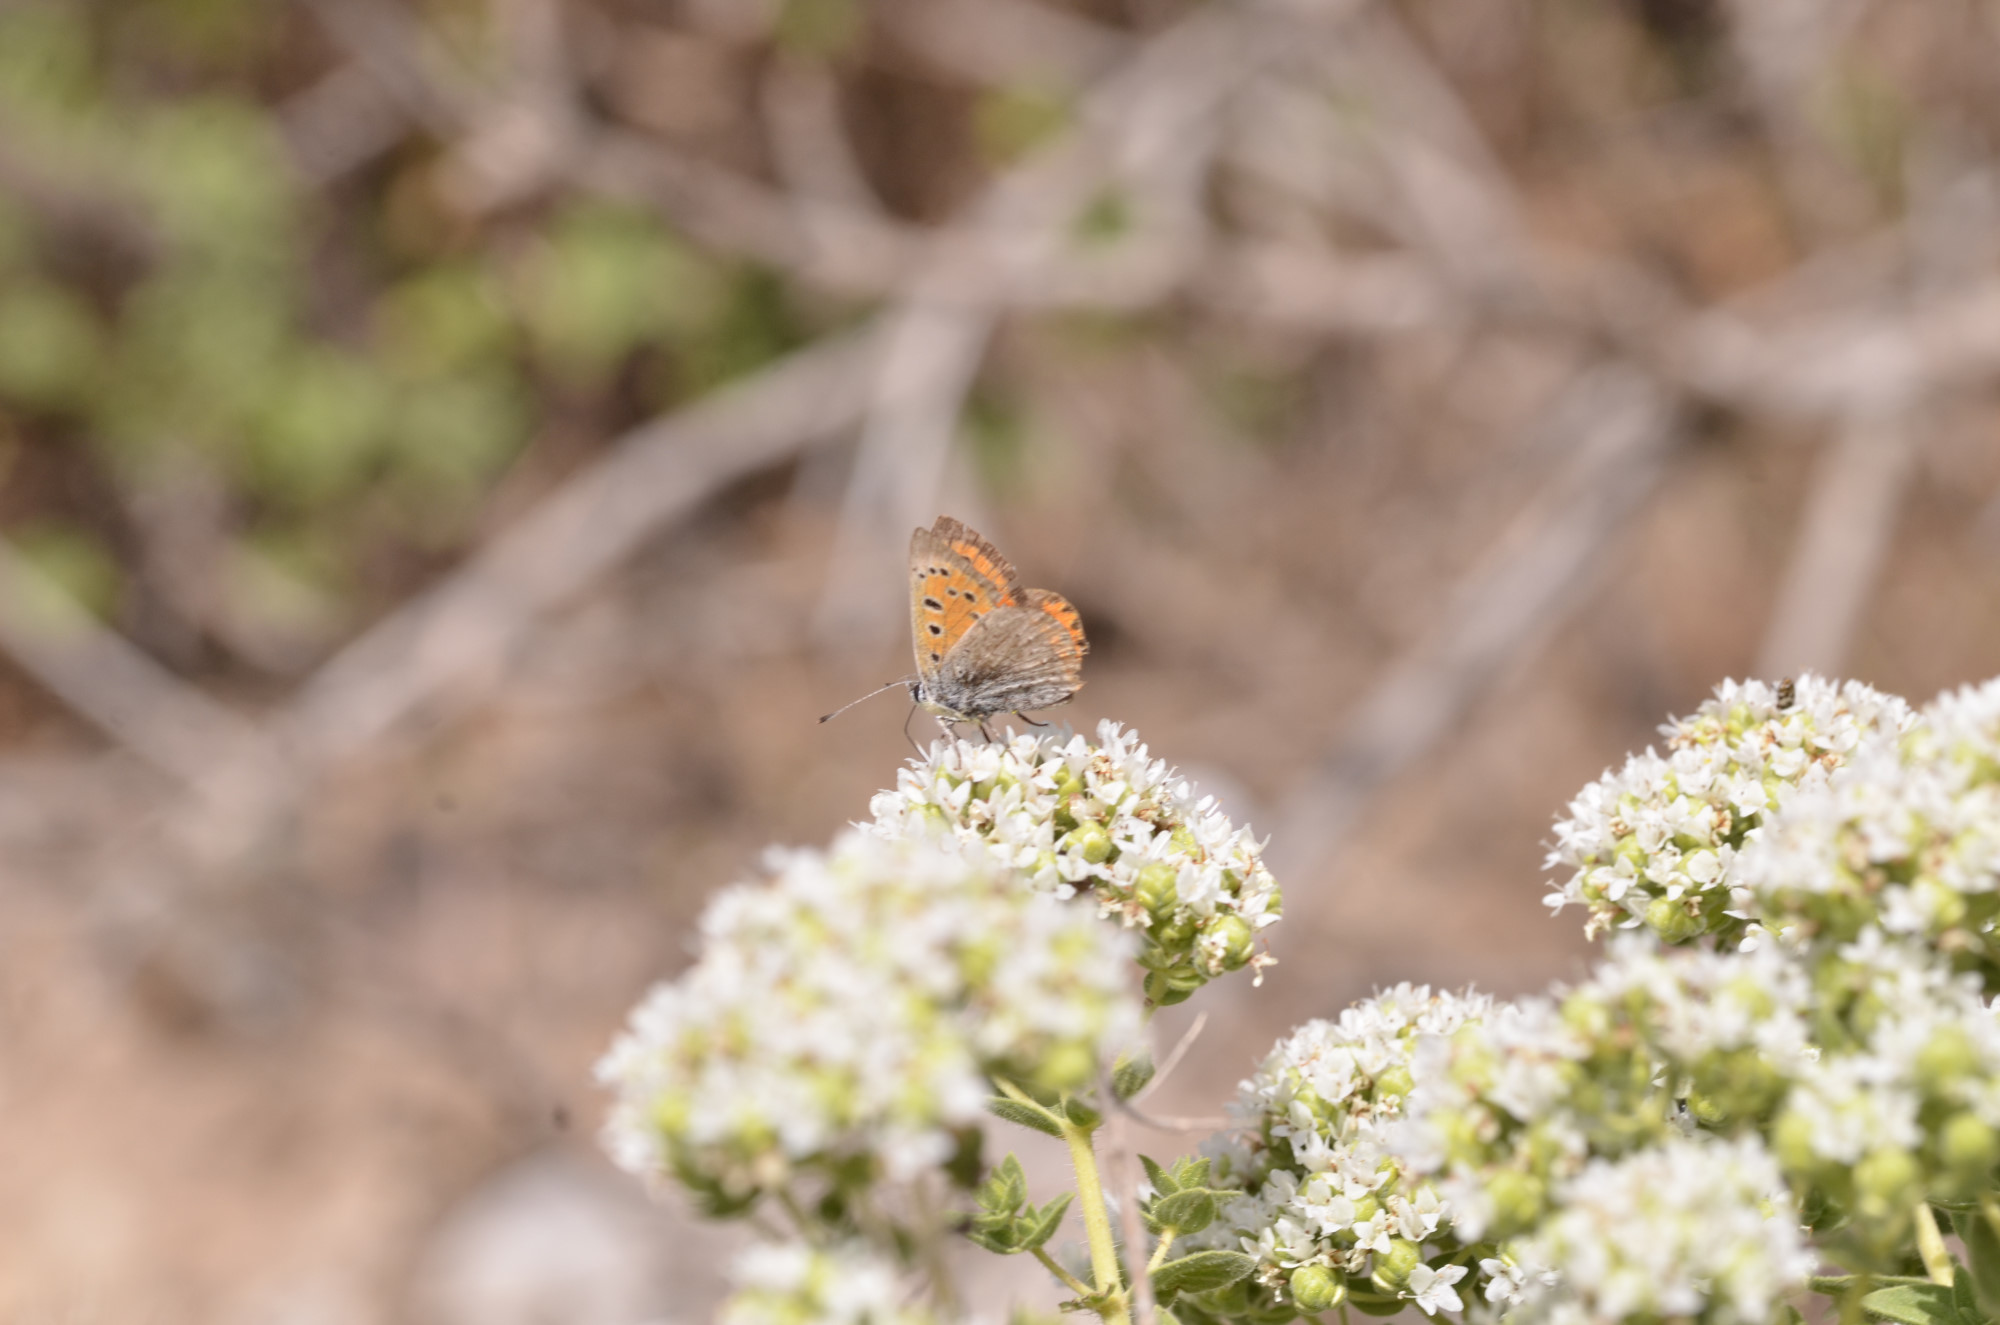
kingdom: Animalia
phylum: Arthropoda
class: Insecta
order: Lepidoptera
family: Lycaenidae
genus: Lycaena
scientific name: Lycaena phlaeas
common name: Small copper
